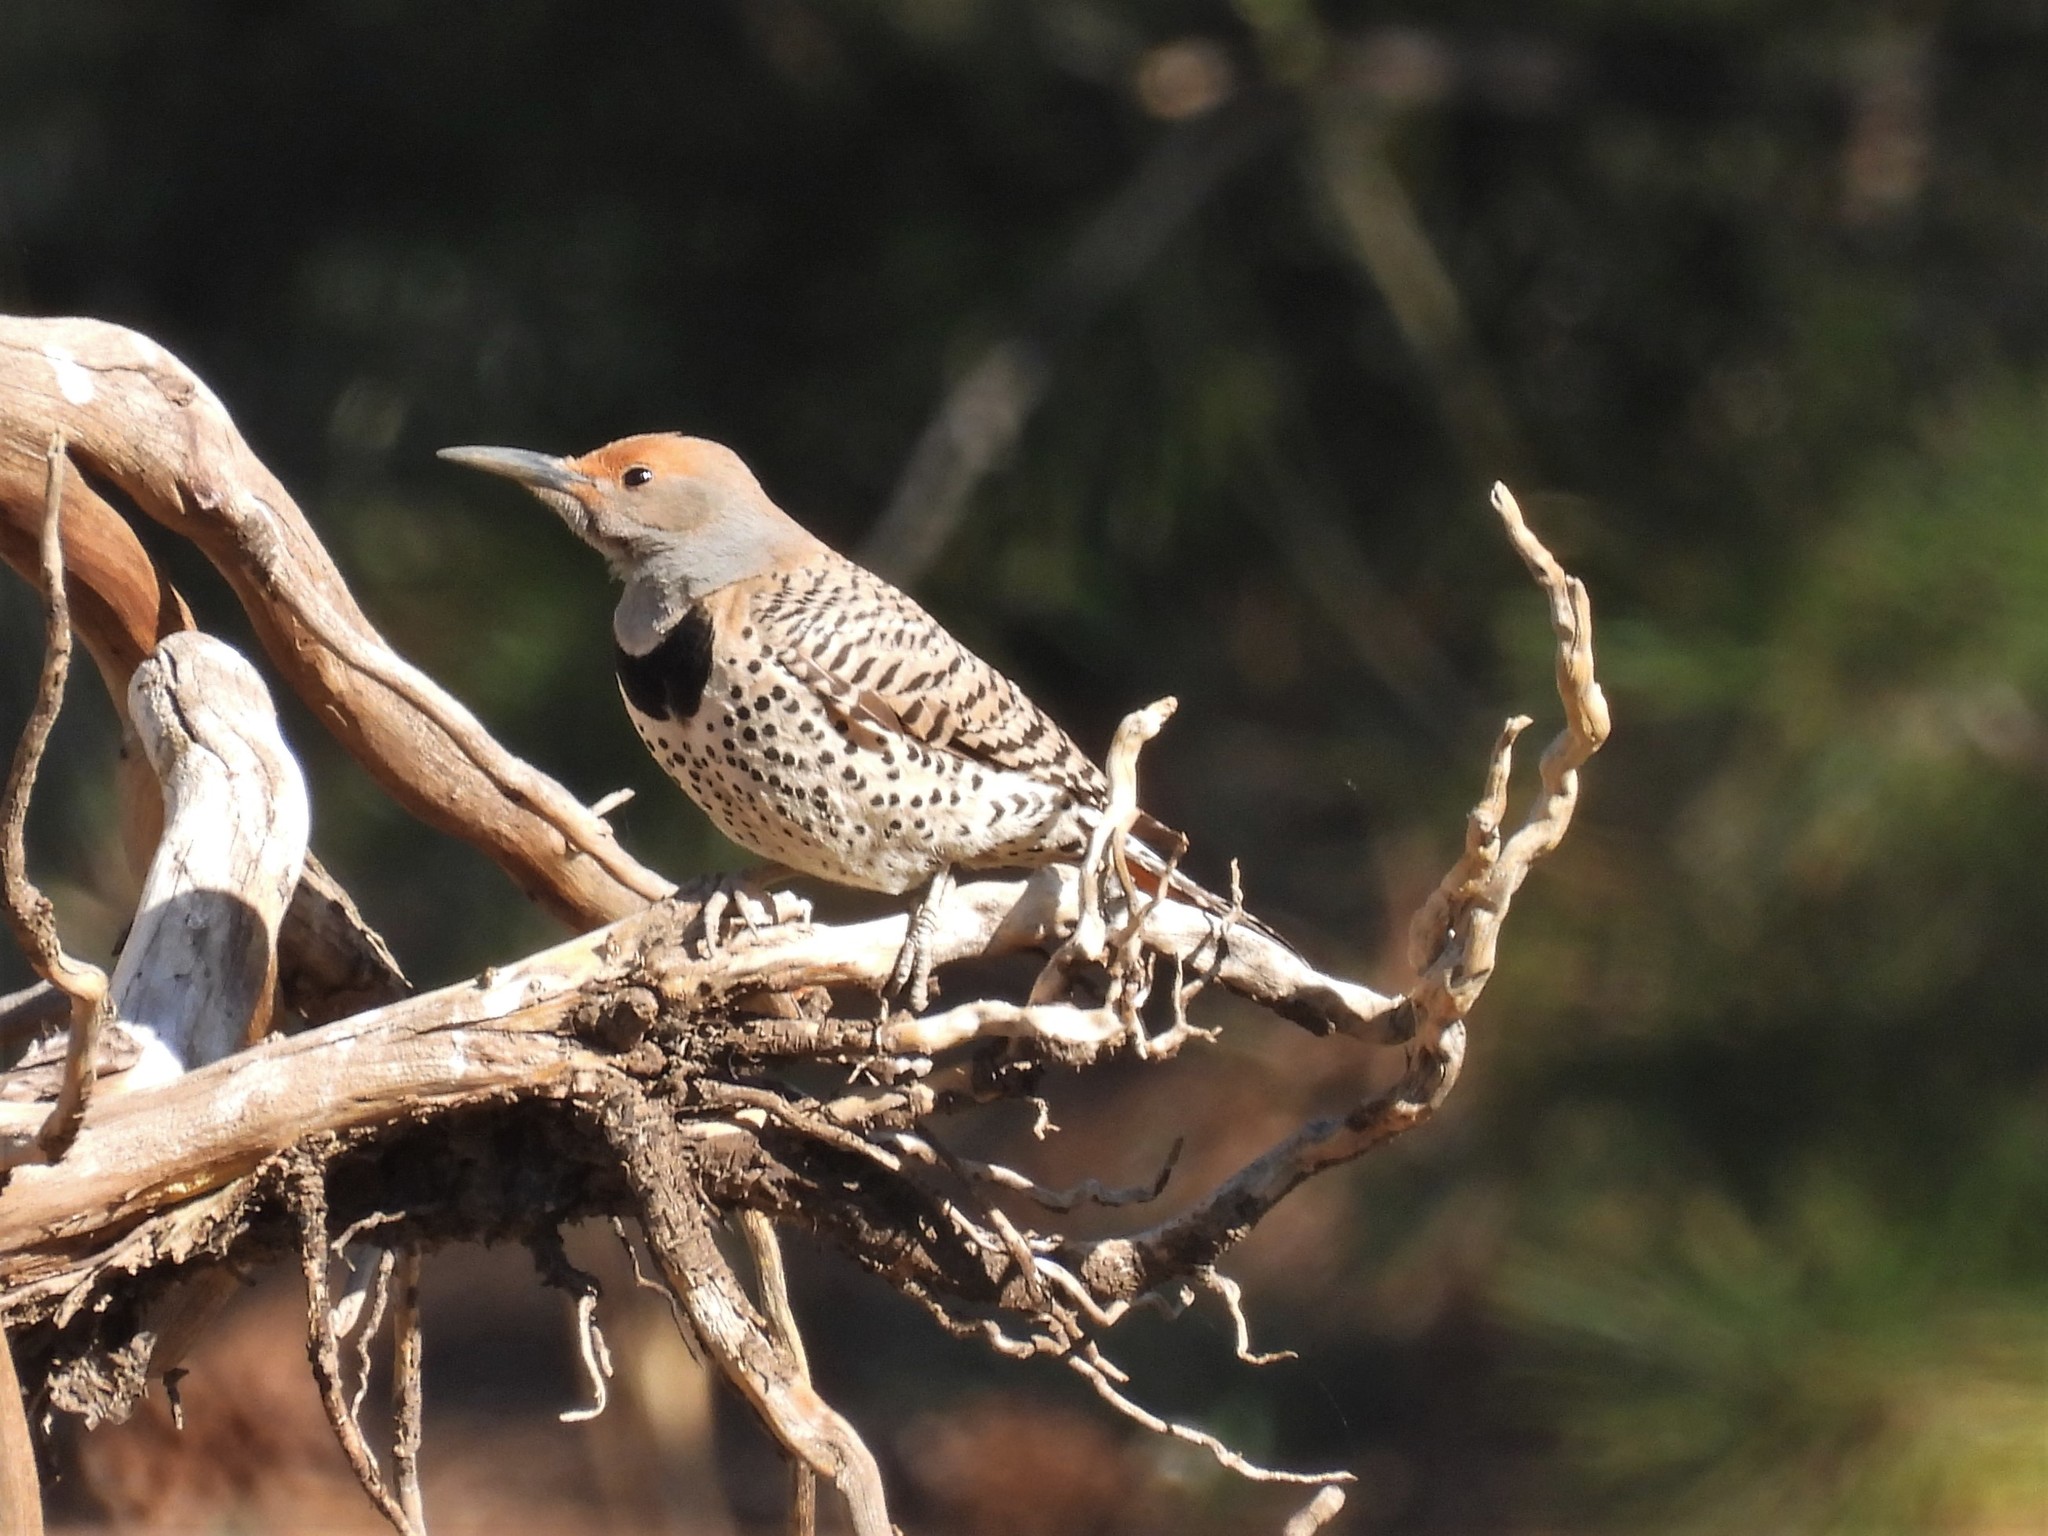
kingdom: Animalia
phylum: Chordata
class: Aves
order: Piciformes
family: Picidae
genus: Colaptes
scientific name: Colaptes auratus
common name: Northern flicker
